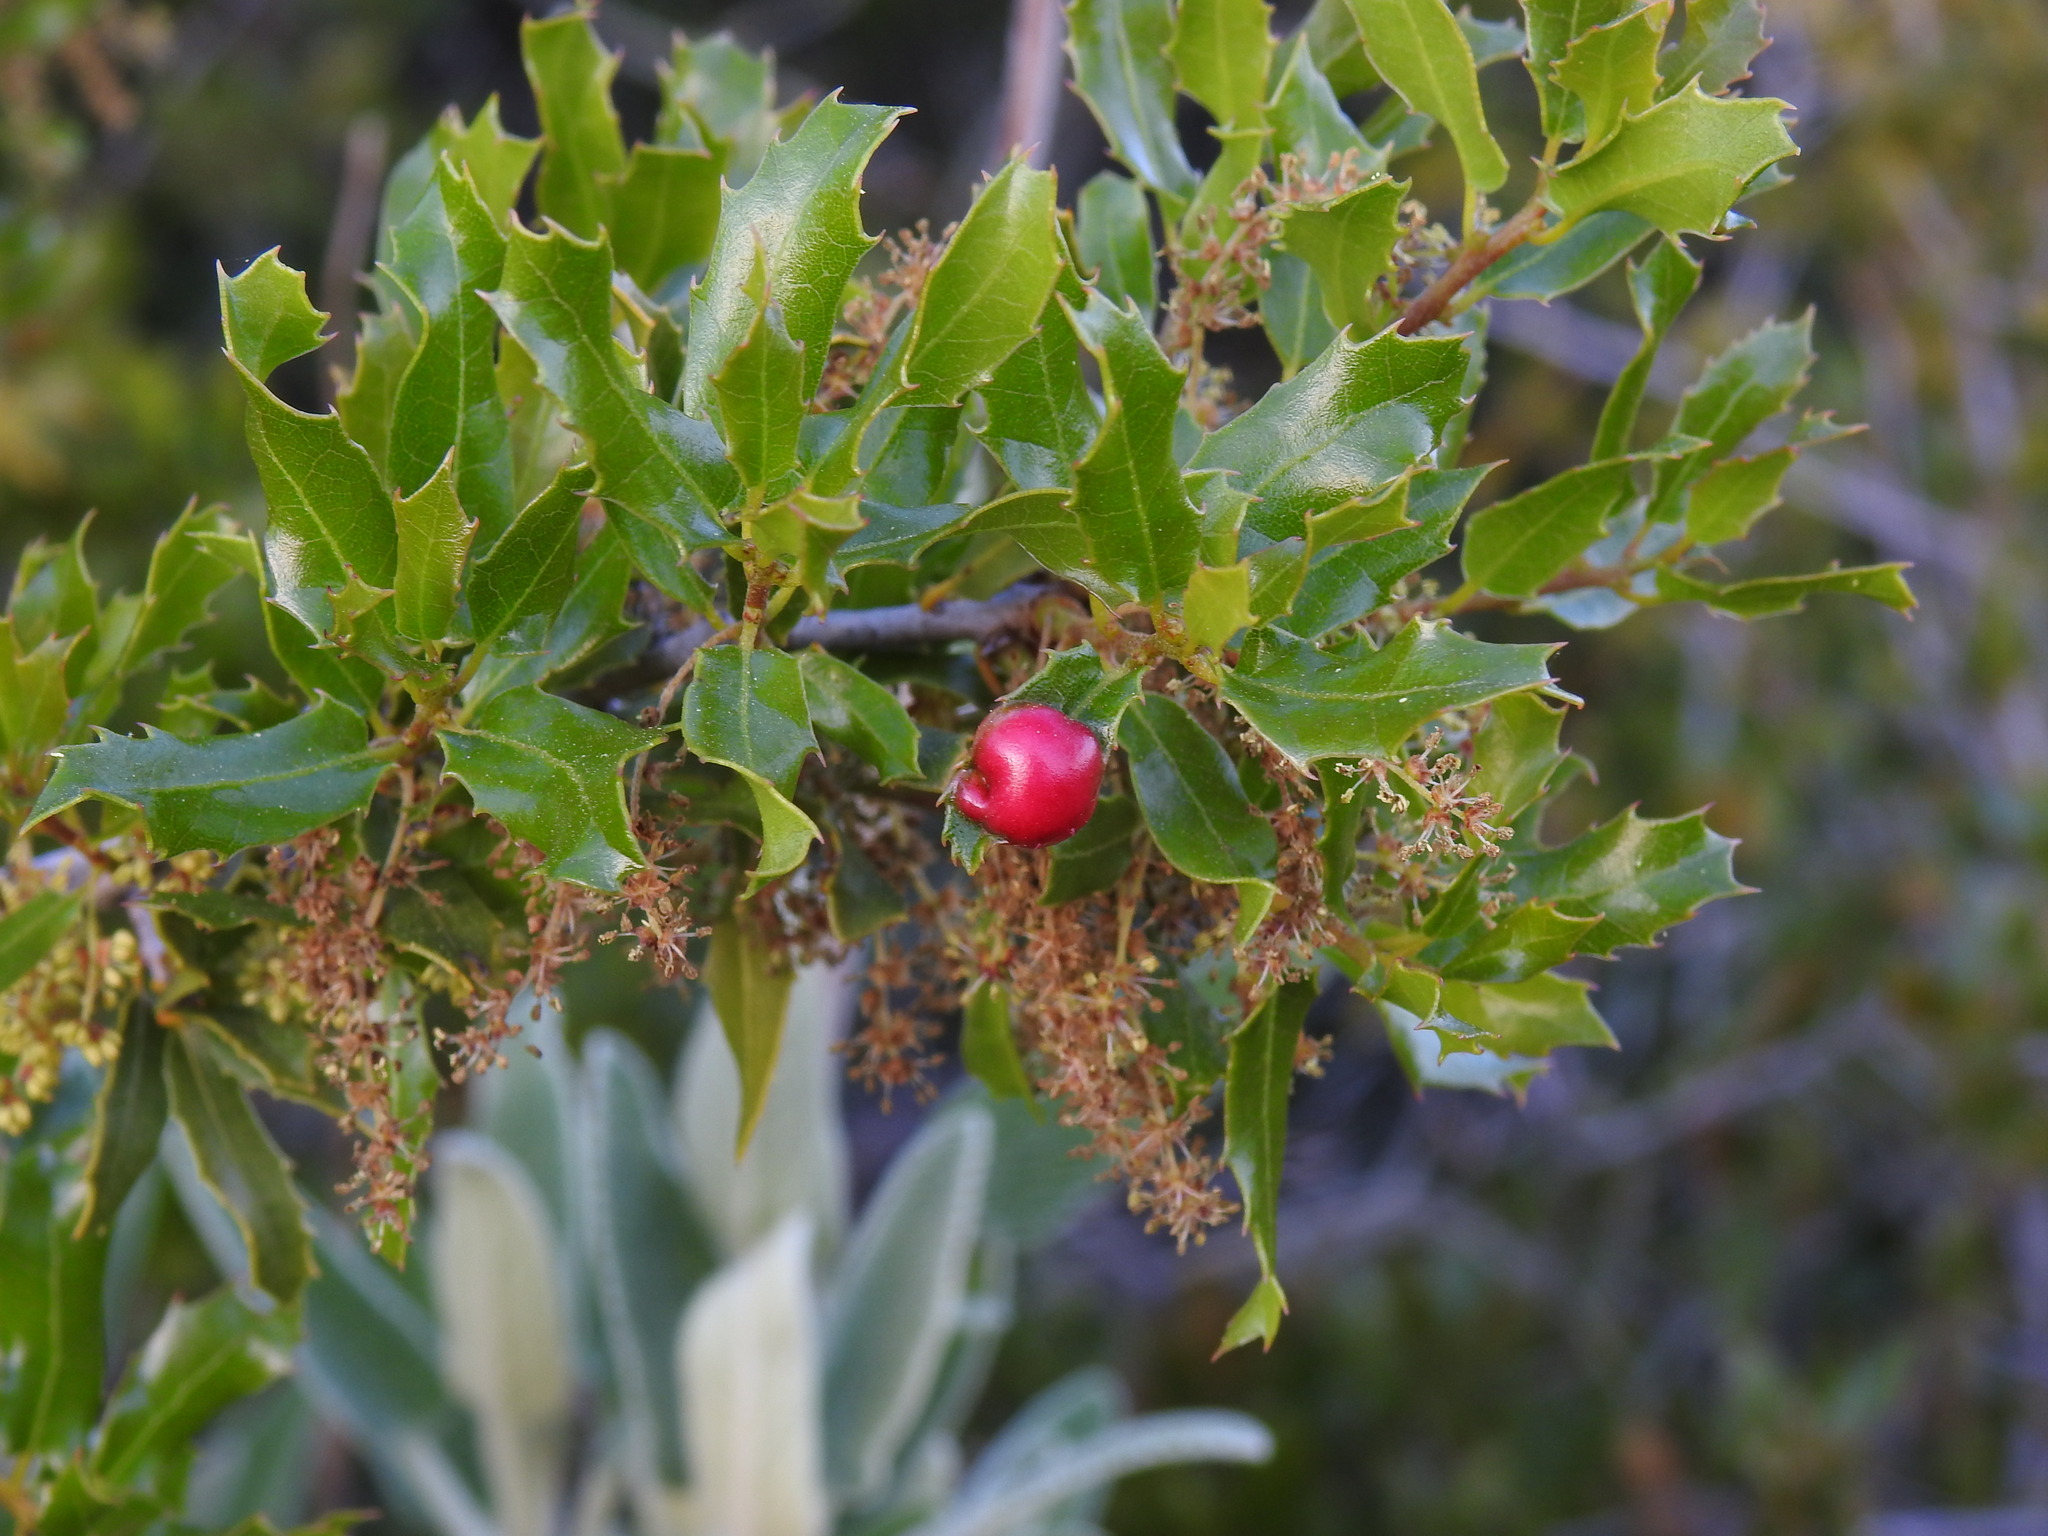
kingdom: Animalia
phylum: Arthropoda
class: Insecta
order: Hymenoptera
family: Cynipidae
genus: Plagiotrochus
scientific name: Plagiotrochus quercusilicis
